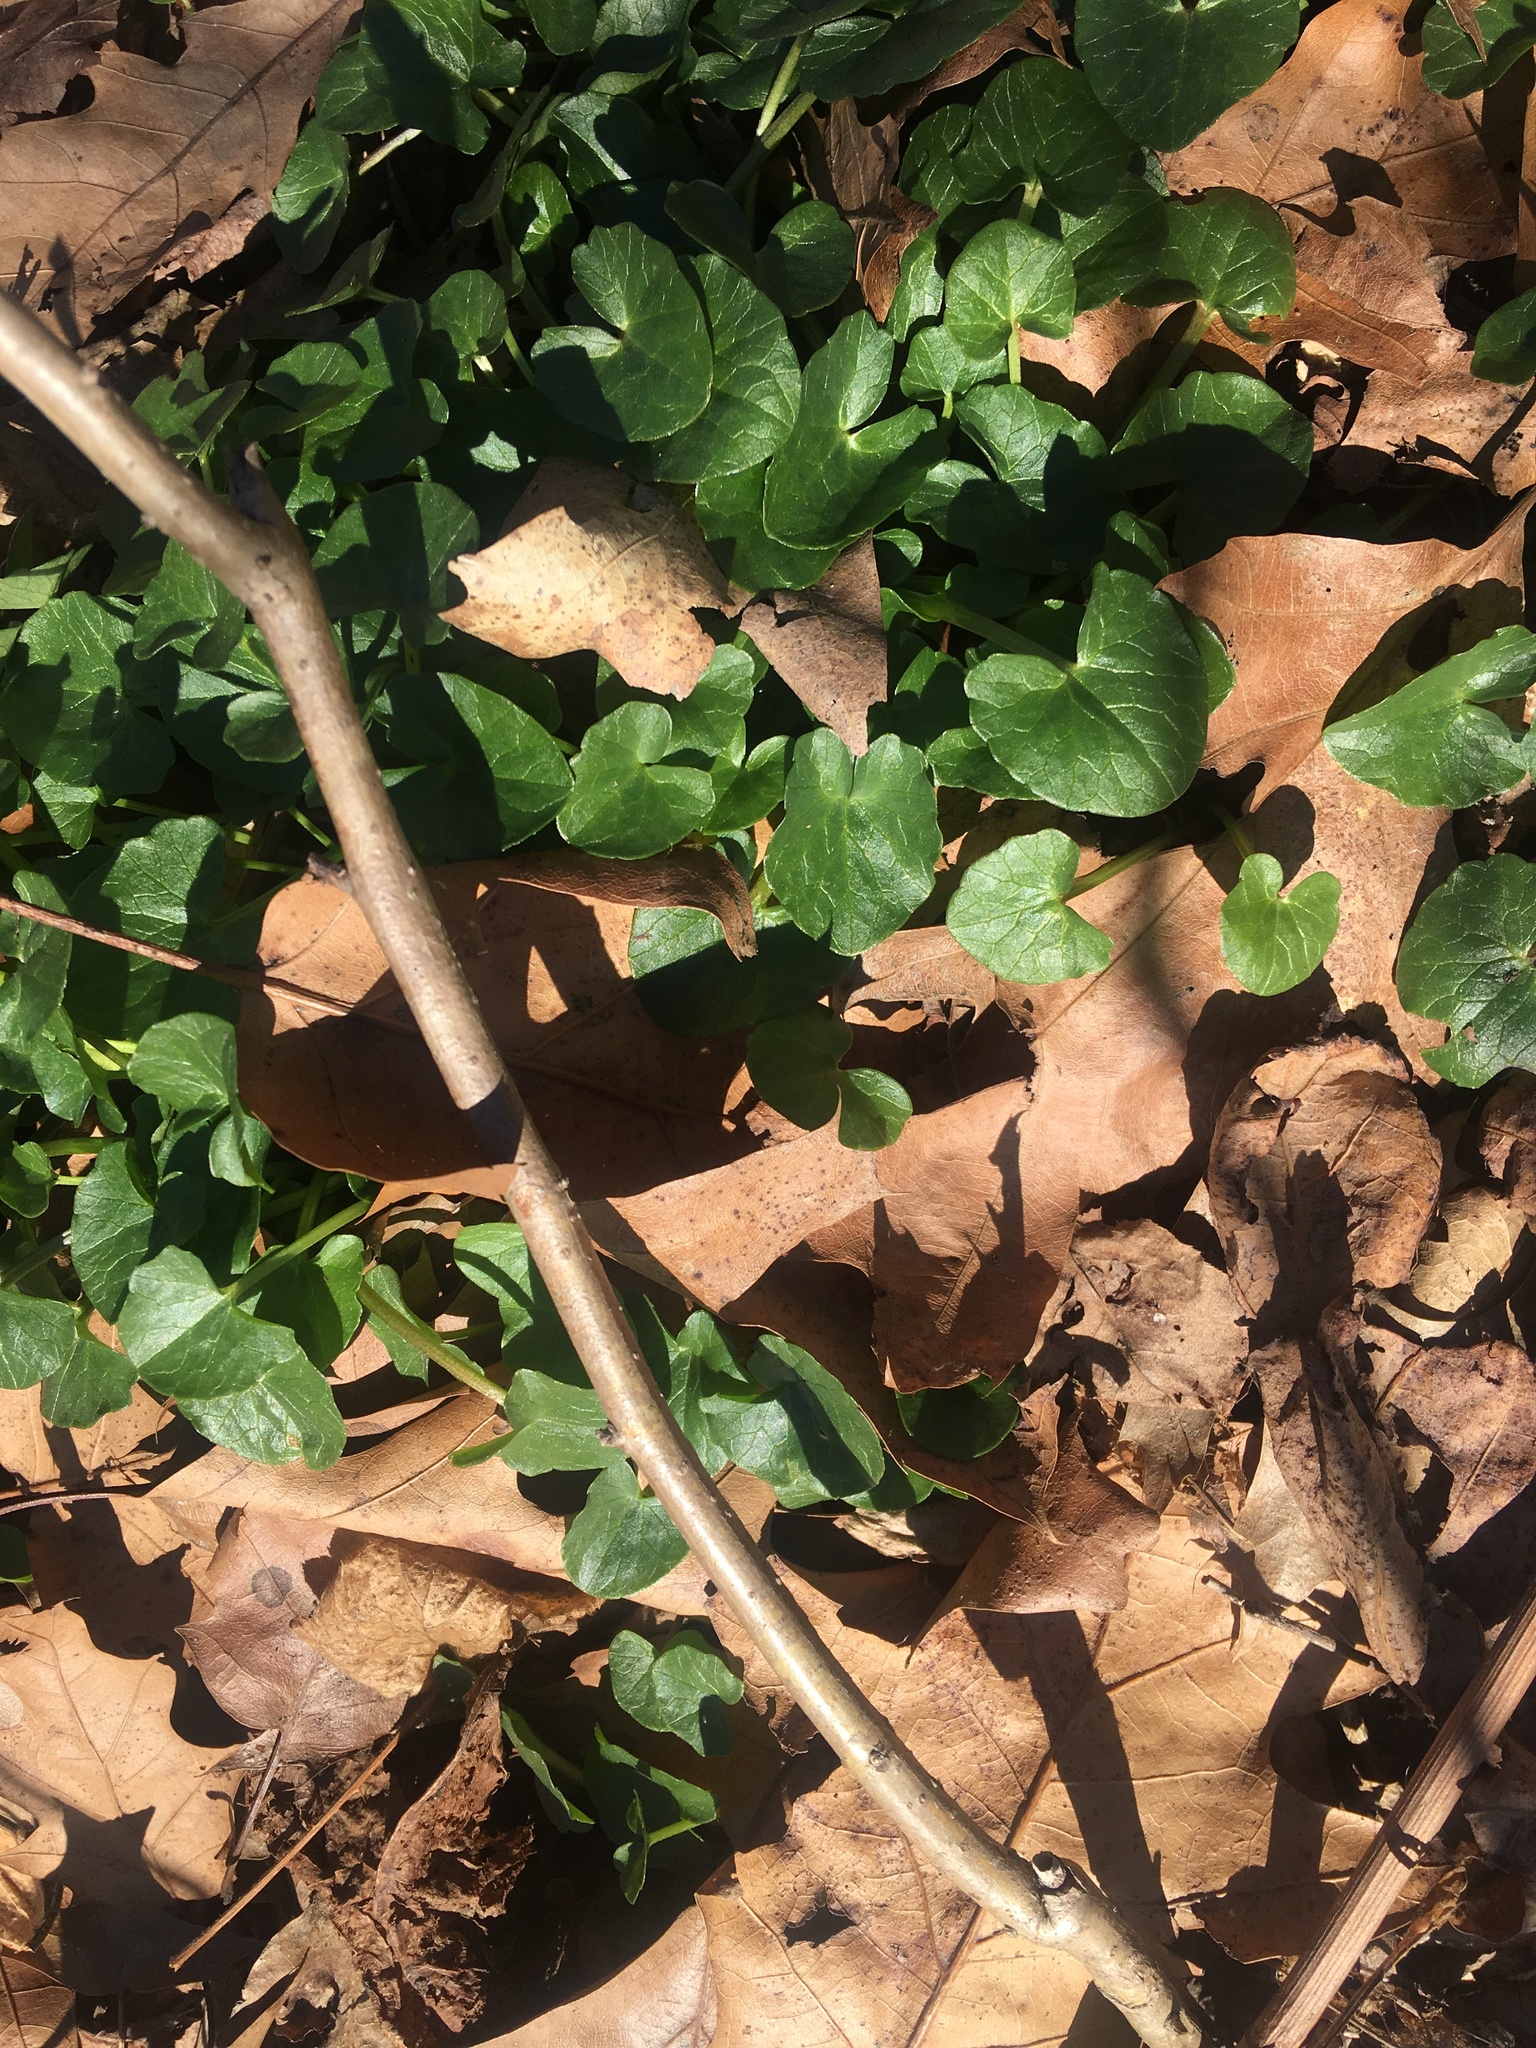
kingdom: Plantae
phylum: Tracheophyta
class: Magnoliopsida
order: Ranunculales
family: Ranunculaceae
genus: Ficaria
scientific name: Ficaria verna
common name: Lesser celandine
